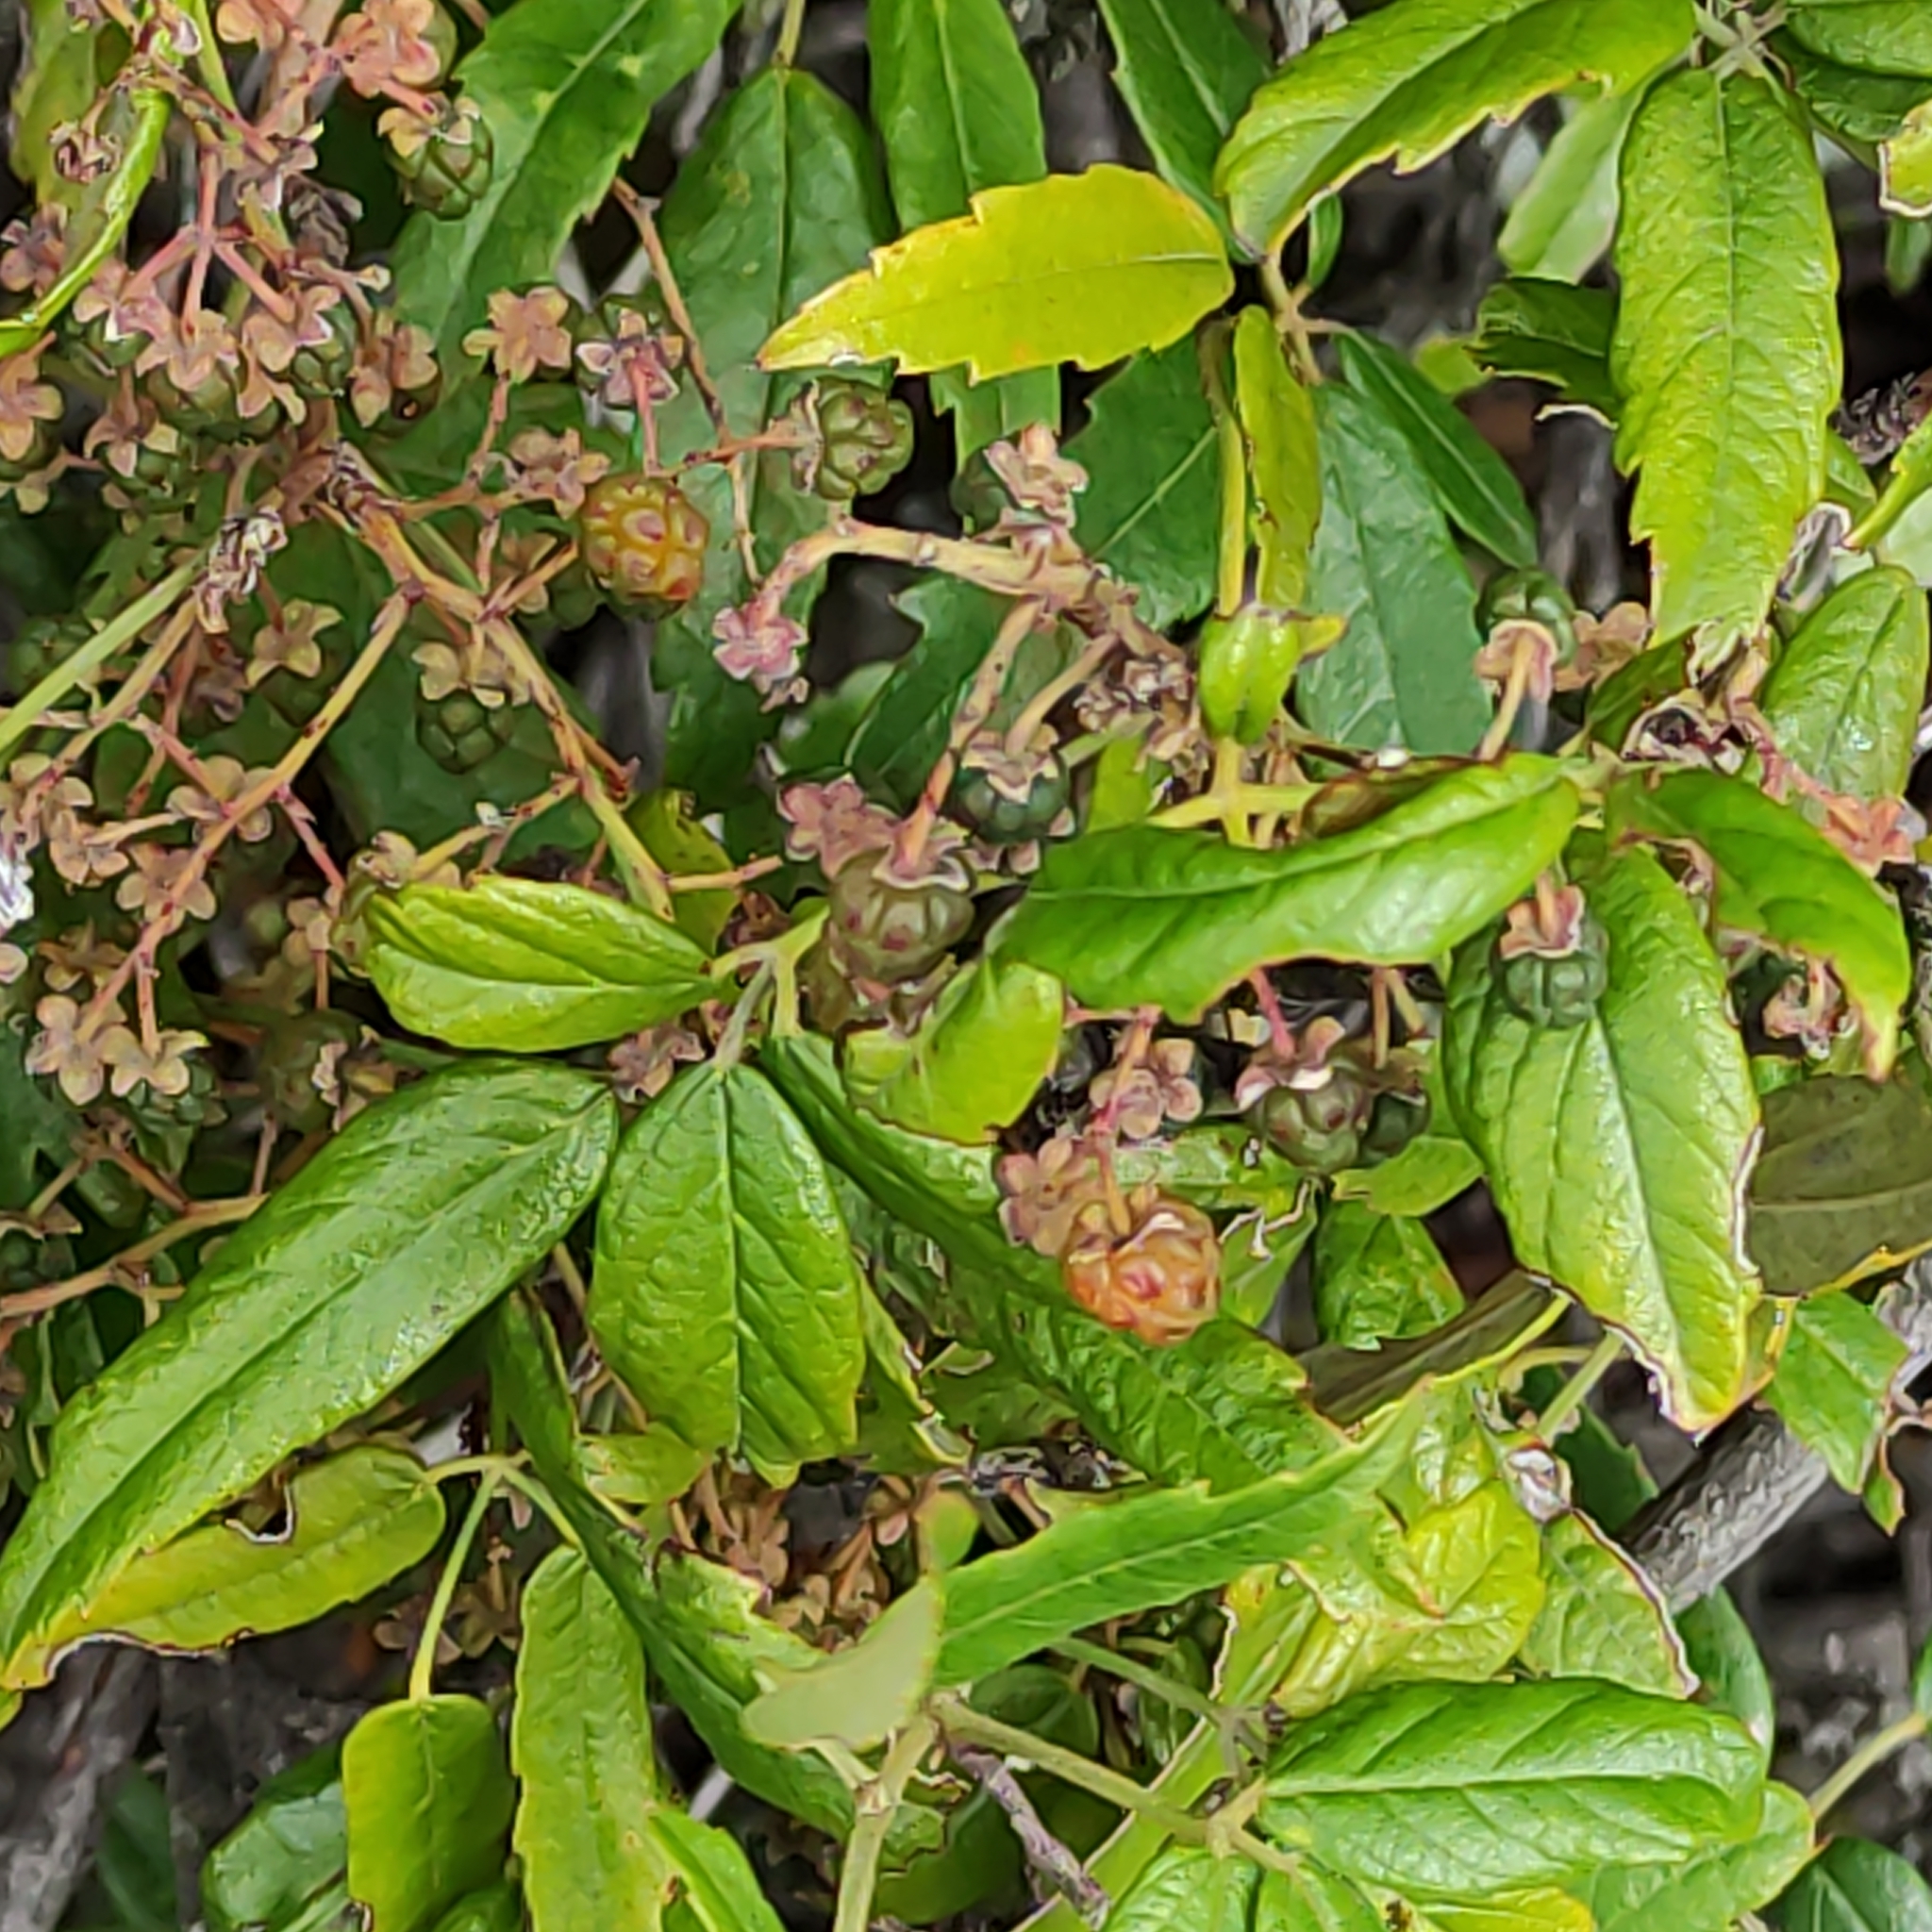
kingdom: Plantae
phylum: Tracheophyta
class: Magnoliopsida
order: Rosales
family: Rosaceae
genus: Rubus
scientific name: Rubus schmidelioides
